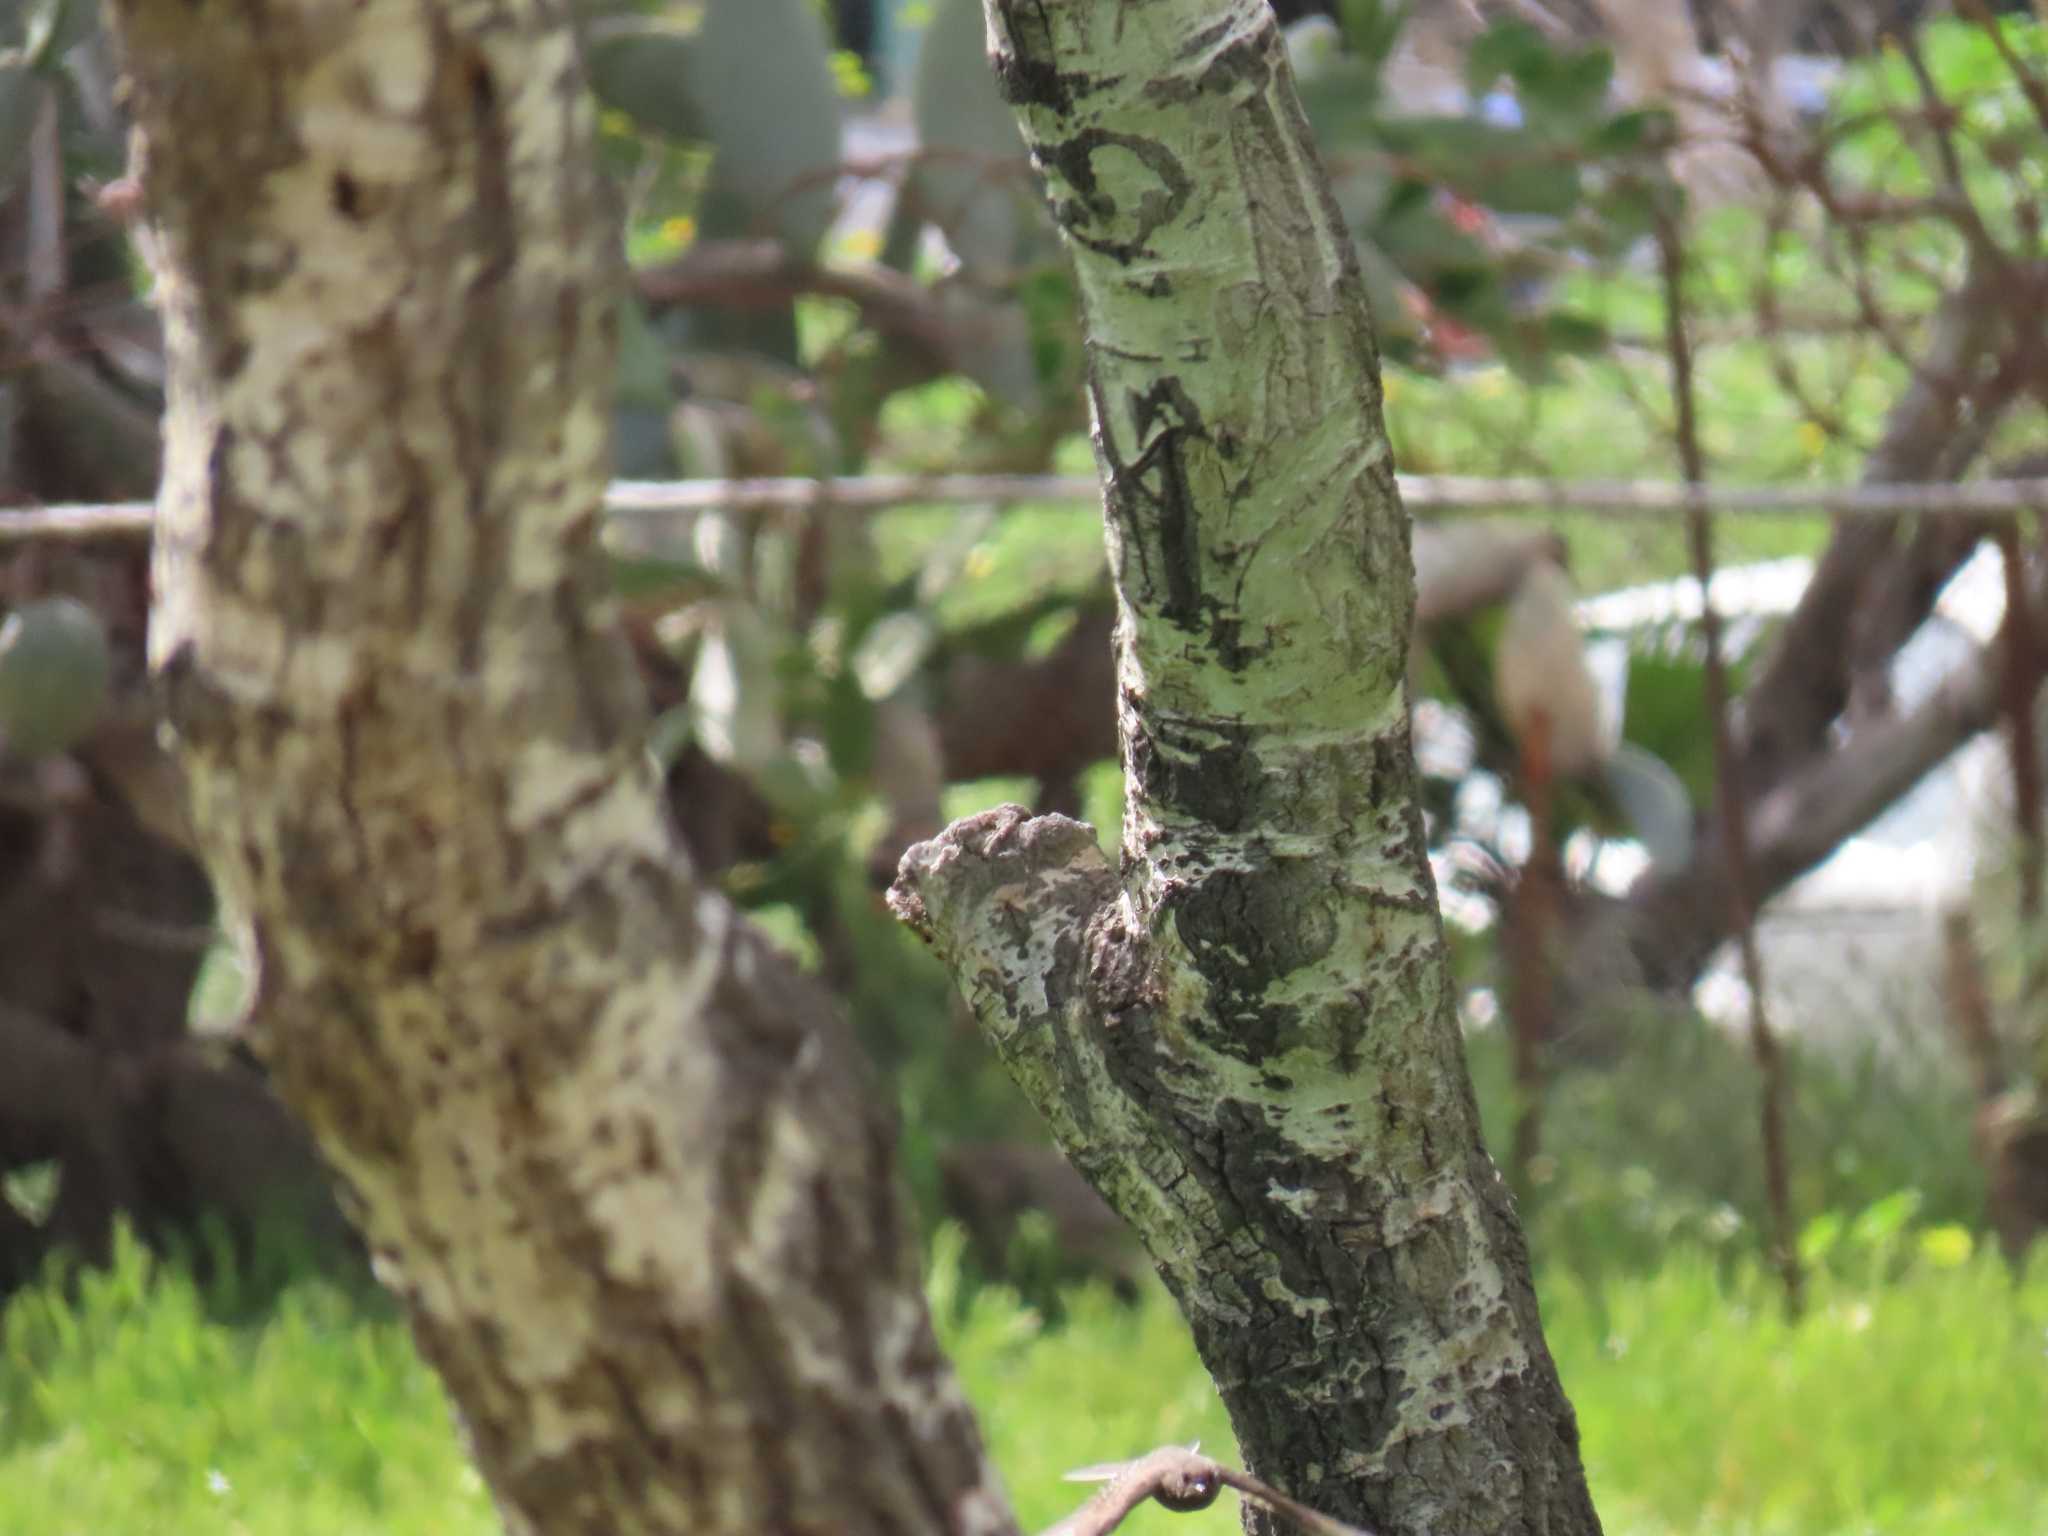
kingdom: Animalia
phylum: Chordata
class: Aves
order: Passeriformes
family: Tyrannidae
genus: Sayornis
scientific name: Sayornis nigricans
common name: Black phoebe
